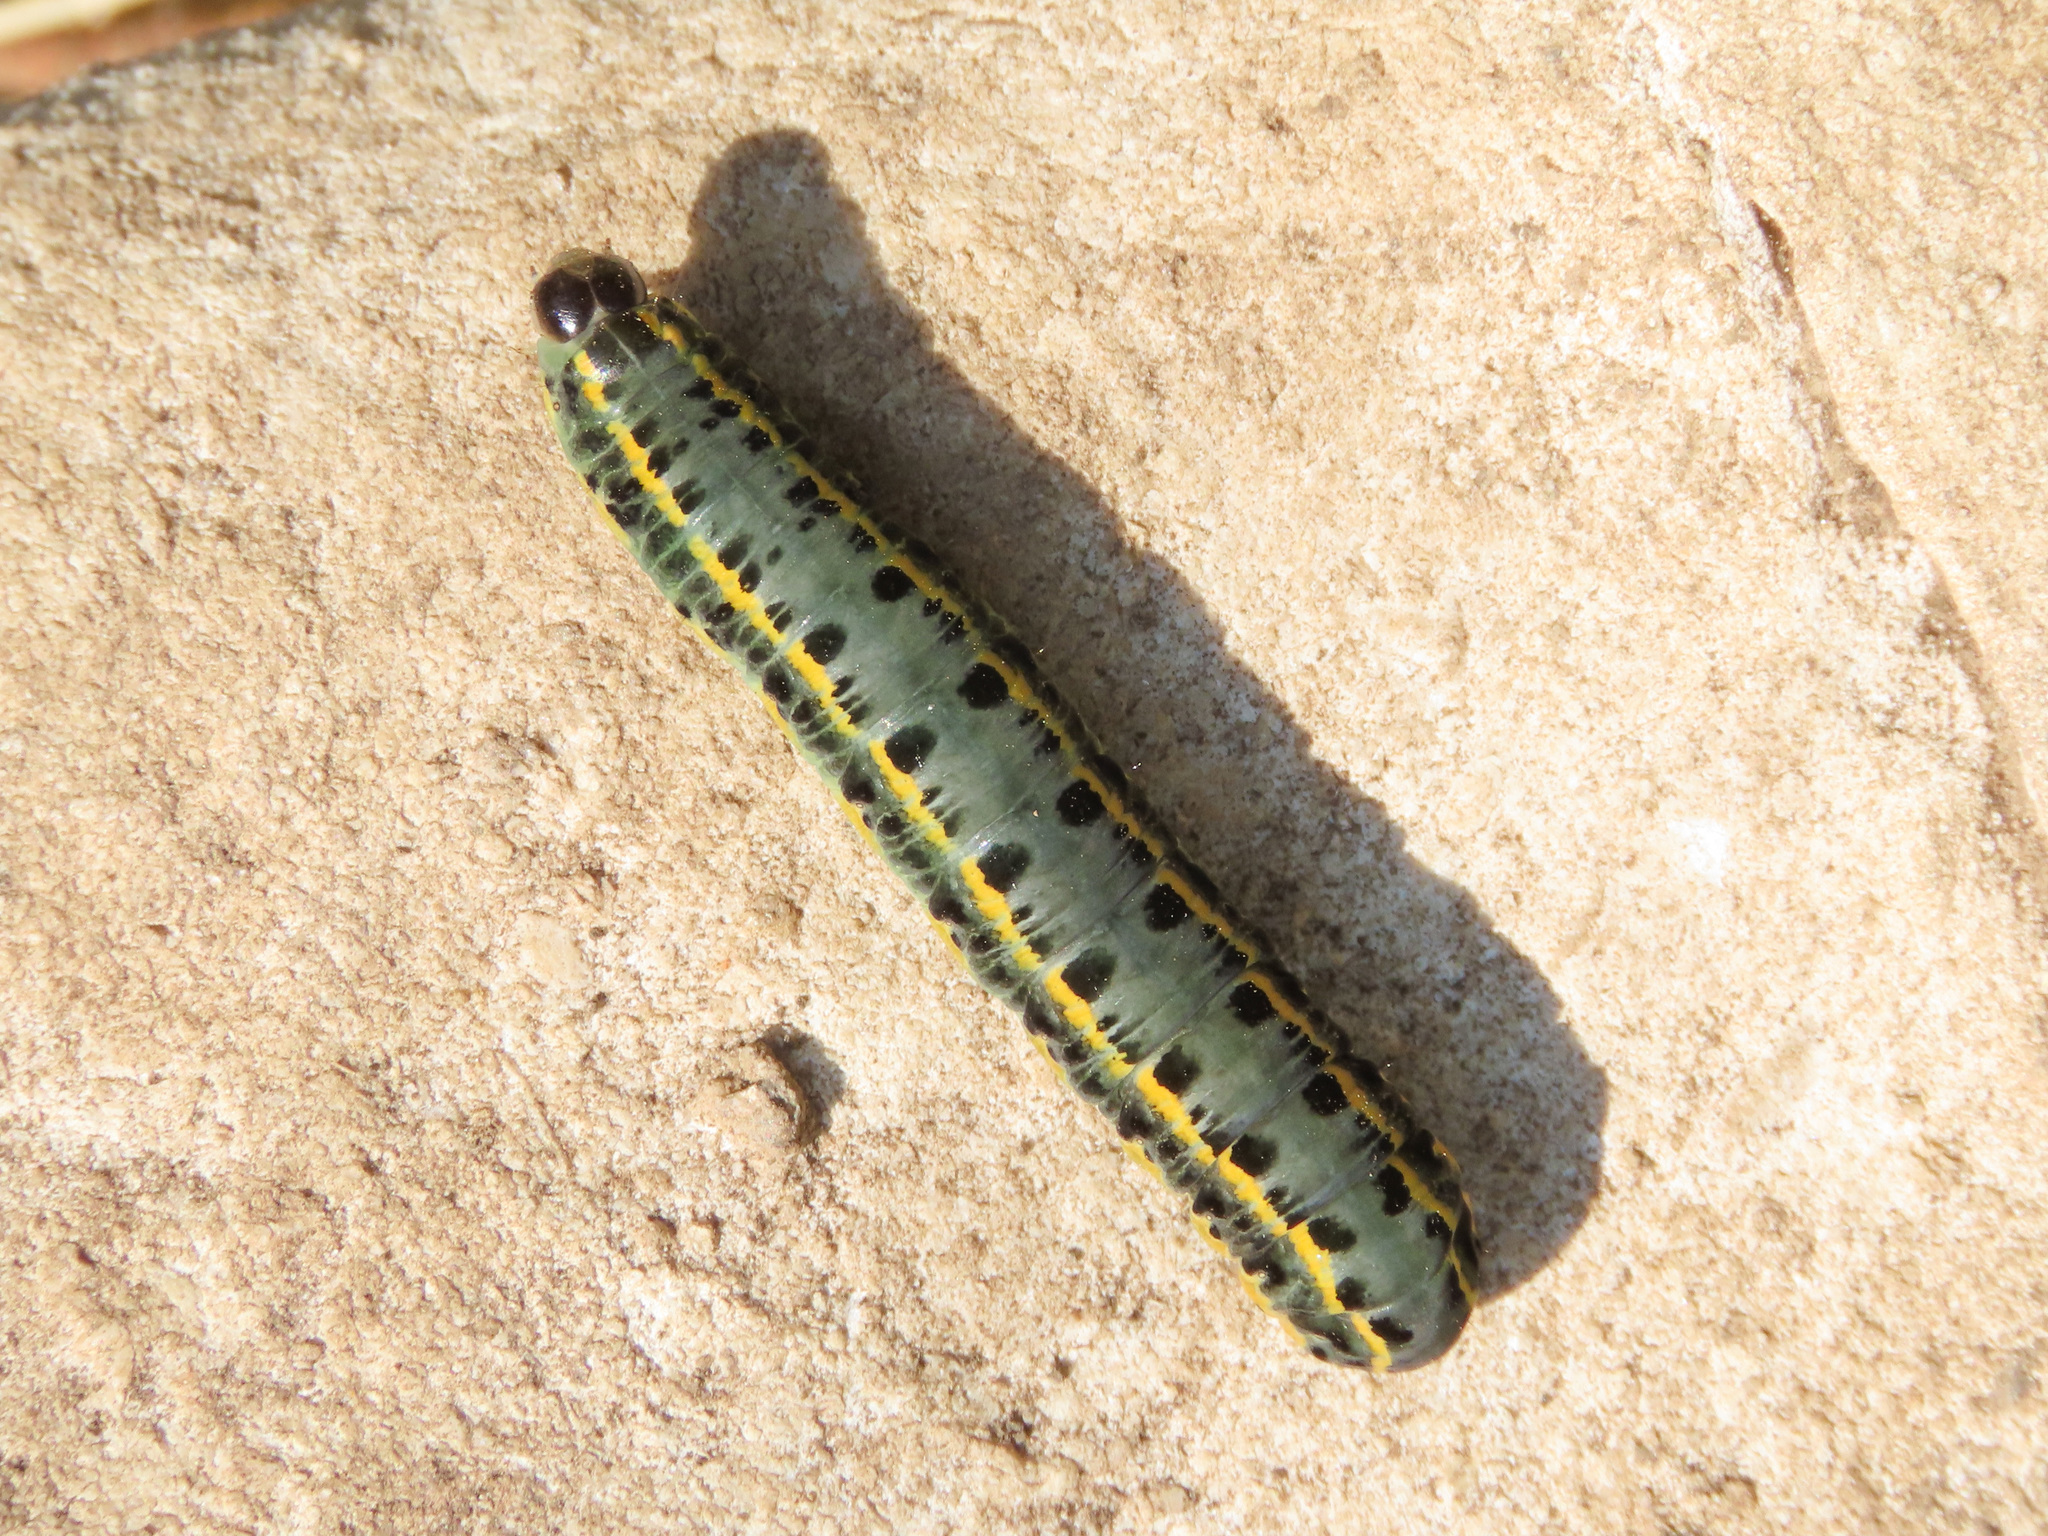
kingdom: Animalia
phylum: Arthropoda
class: Insecta
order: Lepidoptera
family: Noctuidae
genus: Anarta
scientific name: Anarta odontites
